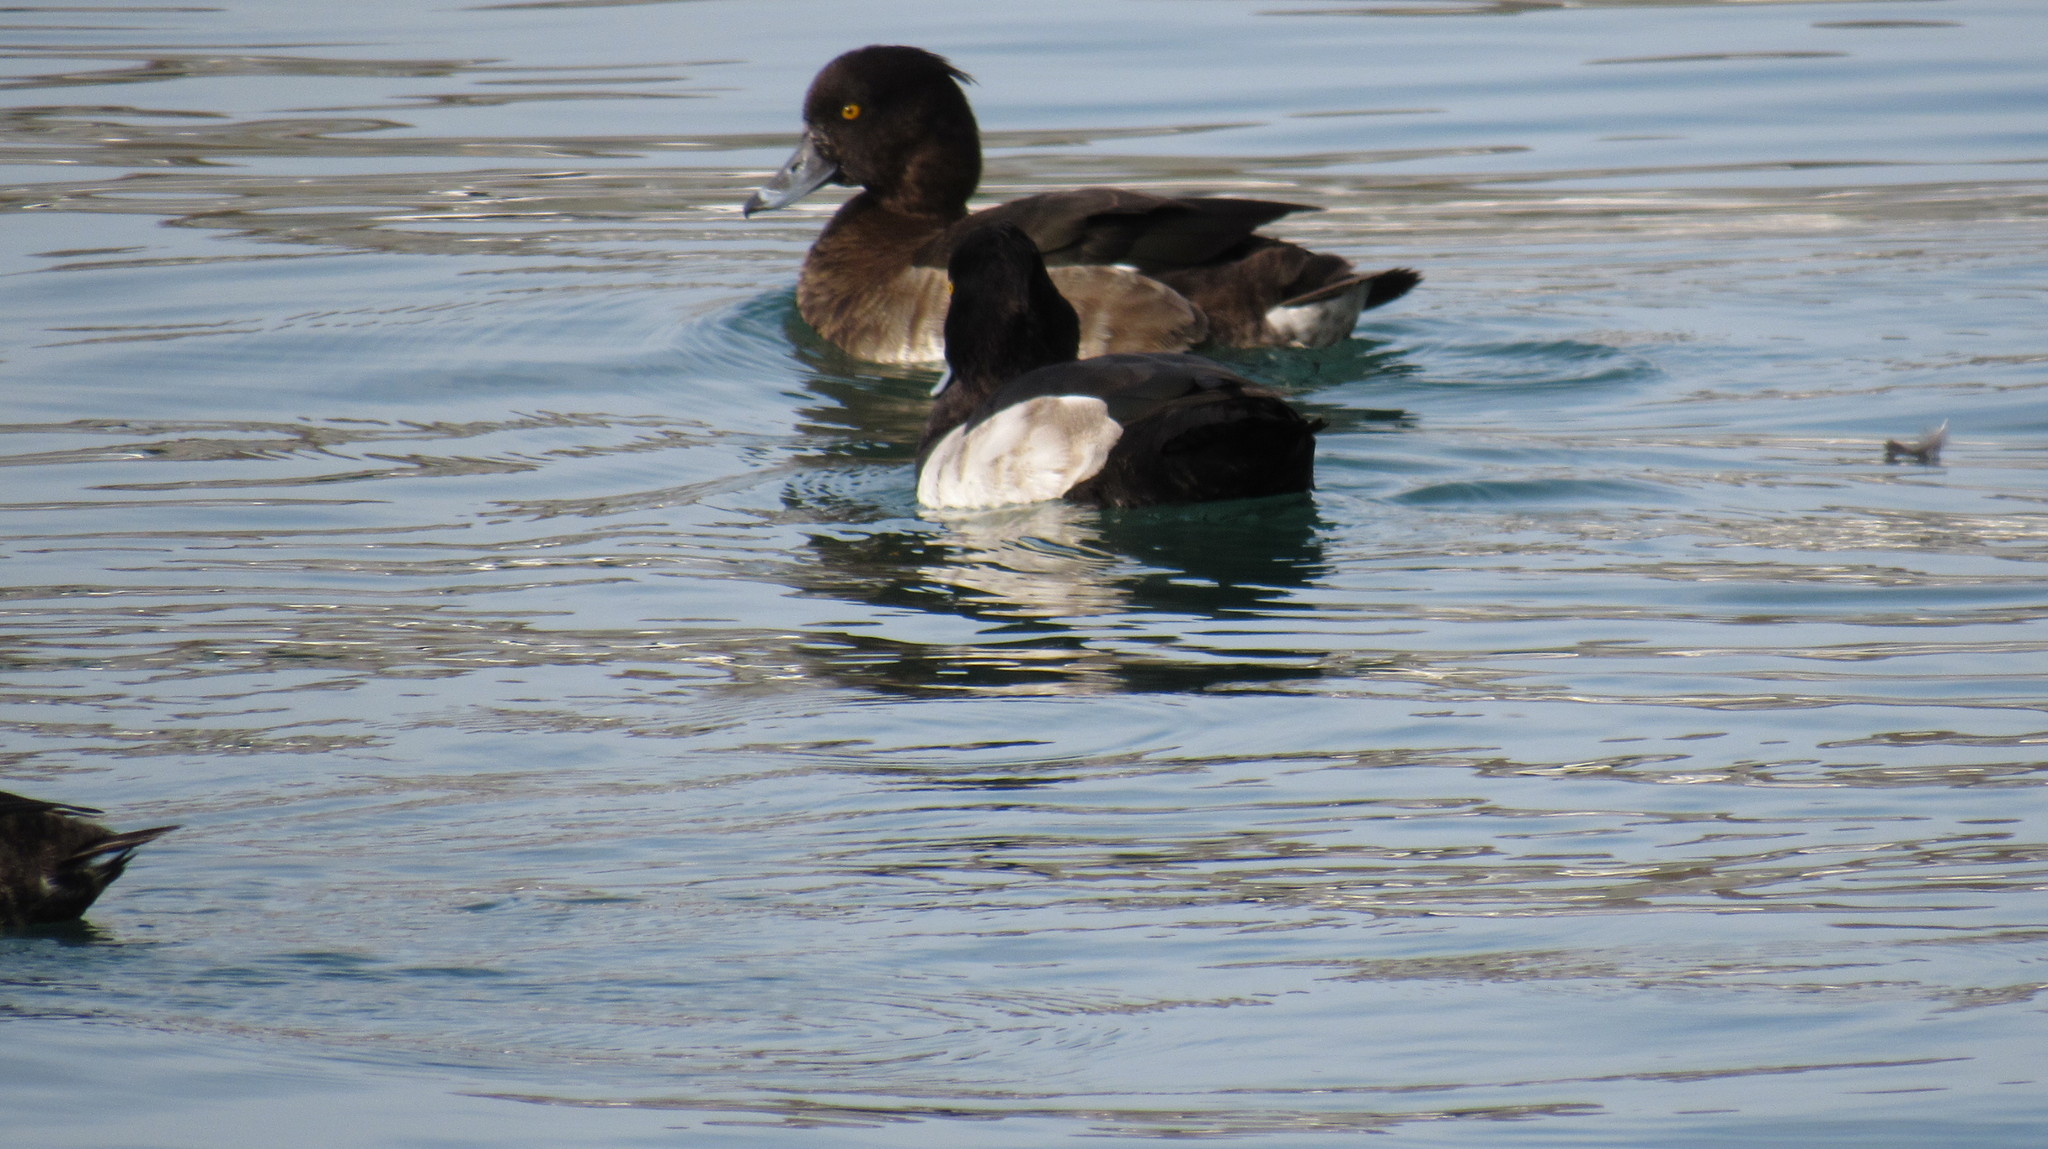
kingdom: Animalia
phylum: Chordata
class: Aves
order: Anseriformes
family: Anatidae
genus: Aythya
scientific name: Aythya fuligula
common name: Tufted duck
